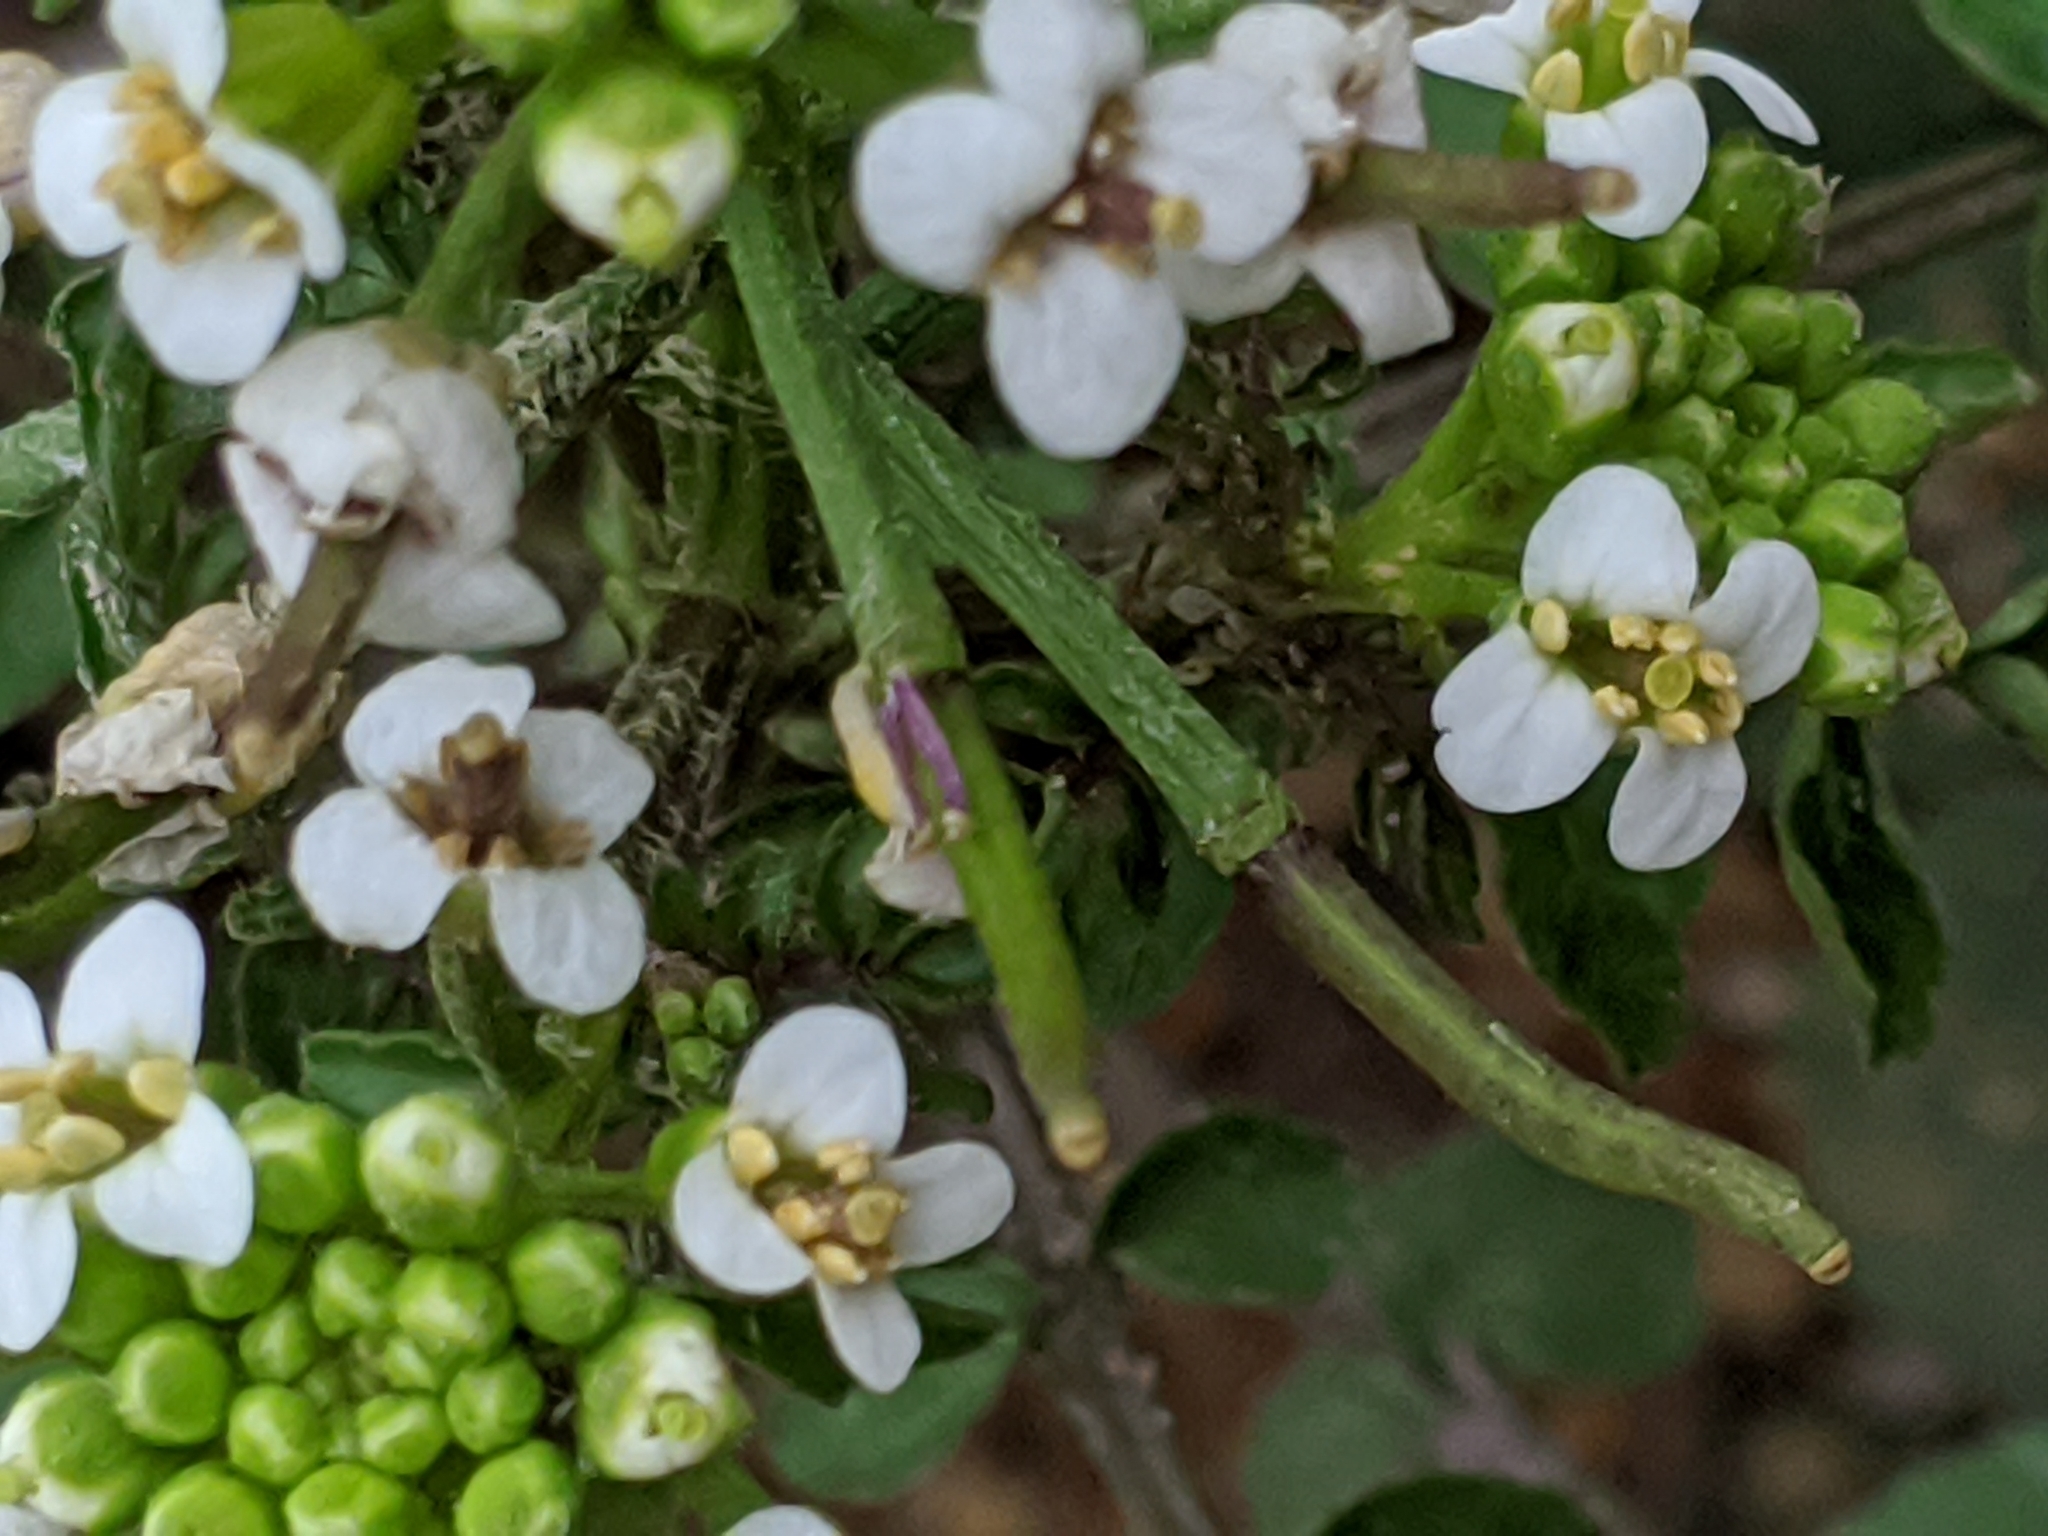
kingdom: Plantae
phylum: Tracheophyta
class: Magnoliopsida
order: Brassicales
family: Brassicaceae
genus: Nasturtium
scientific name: Nasturtium officinale
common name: Watercress
